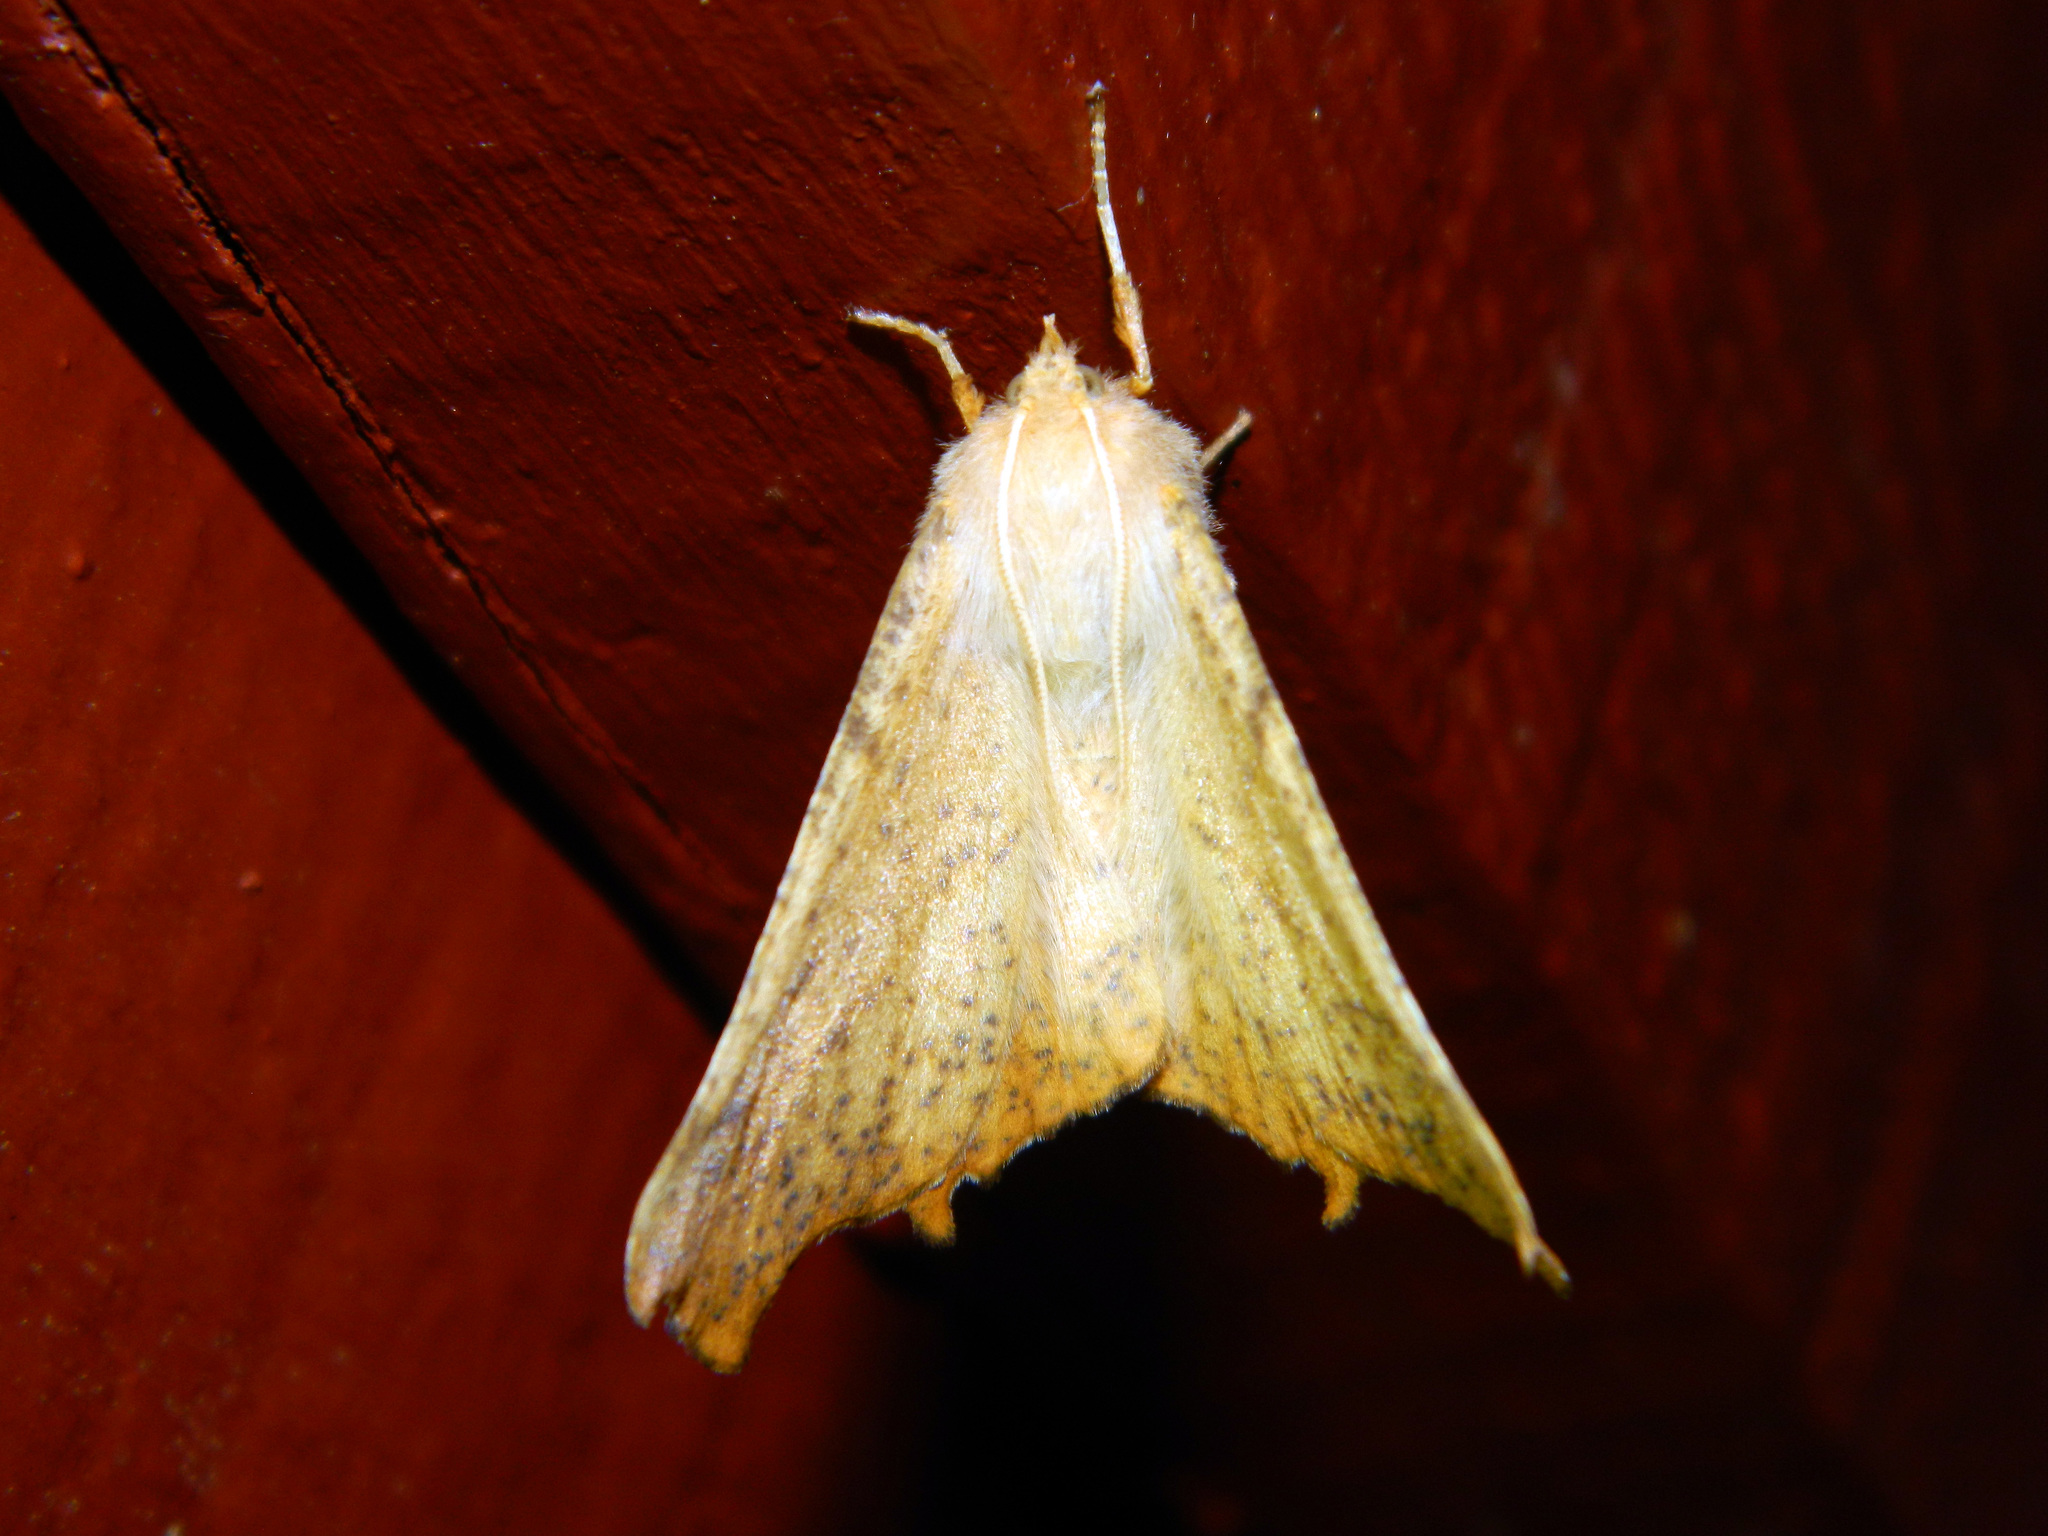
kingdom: Animalia
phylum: Arthropoda
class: Insecta
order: Lepidoptera
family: Geometridae
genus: Ennomos
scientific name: Ennomos magnaria
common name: Maple spanworm
